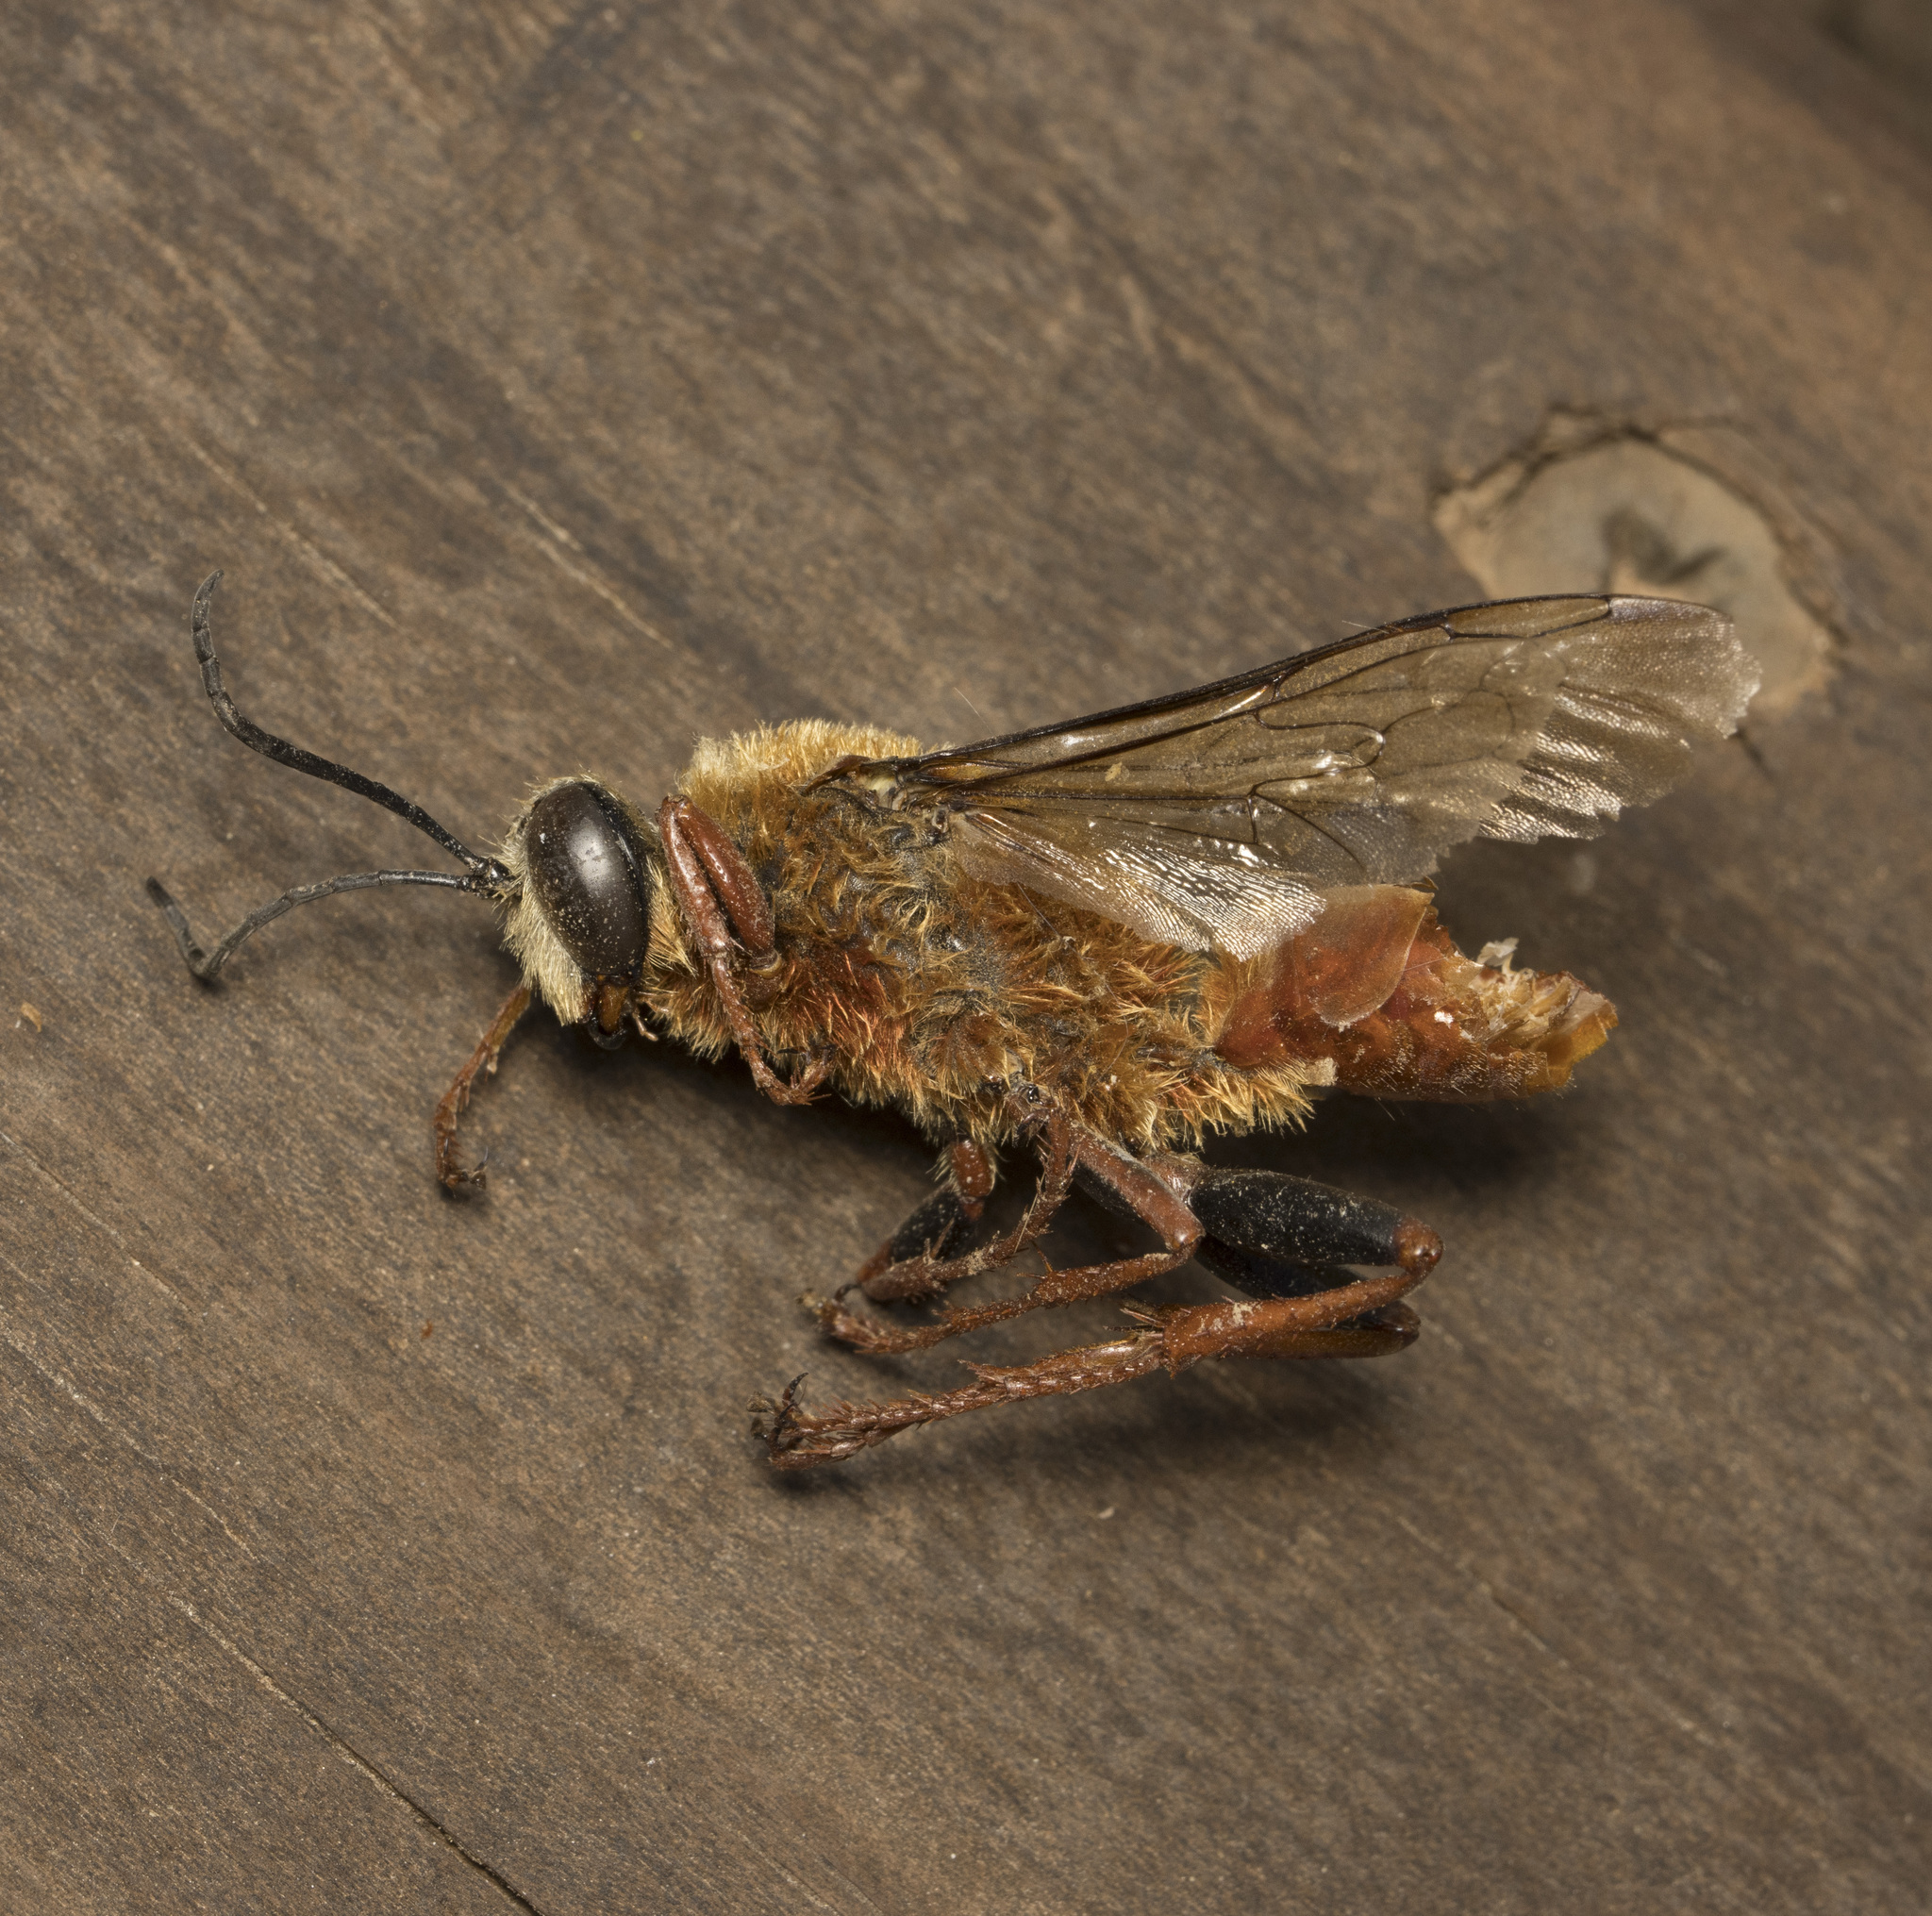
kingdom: Animalia
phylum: Arthropoda
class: Insecta
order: Hymenoptera
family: Sphecidae
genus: Sphex
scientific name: Sphex latreillei
